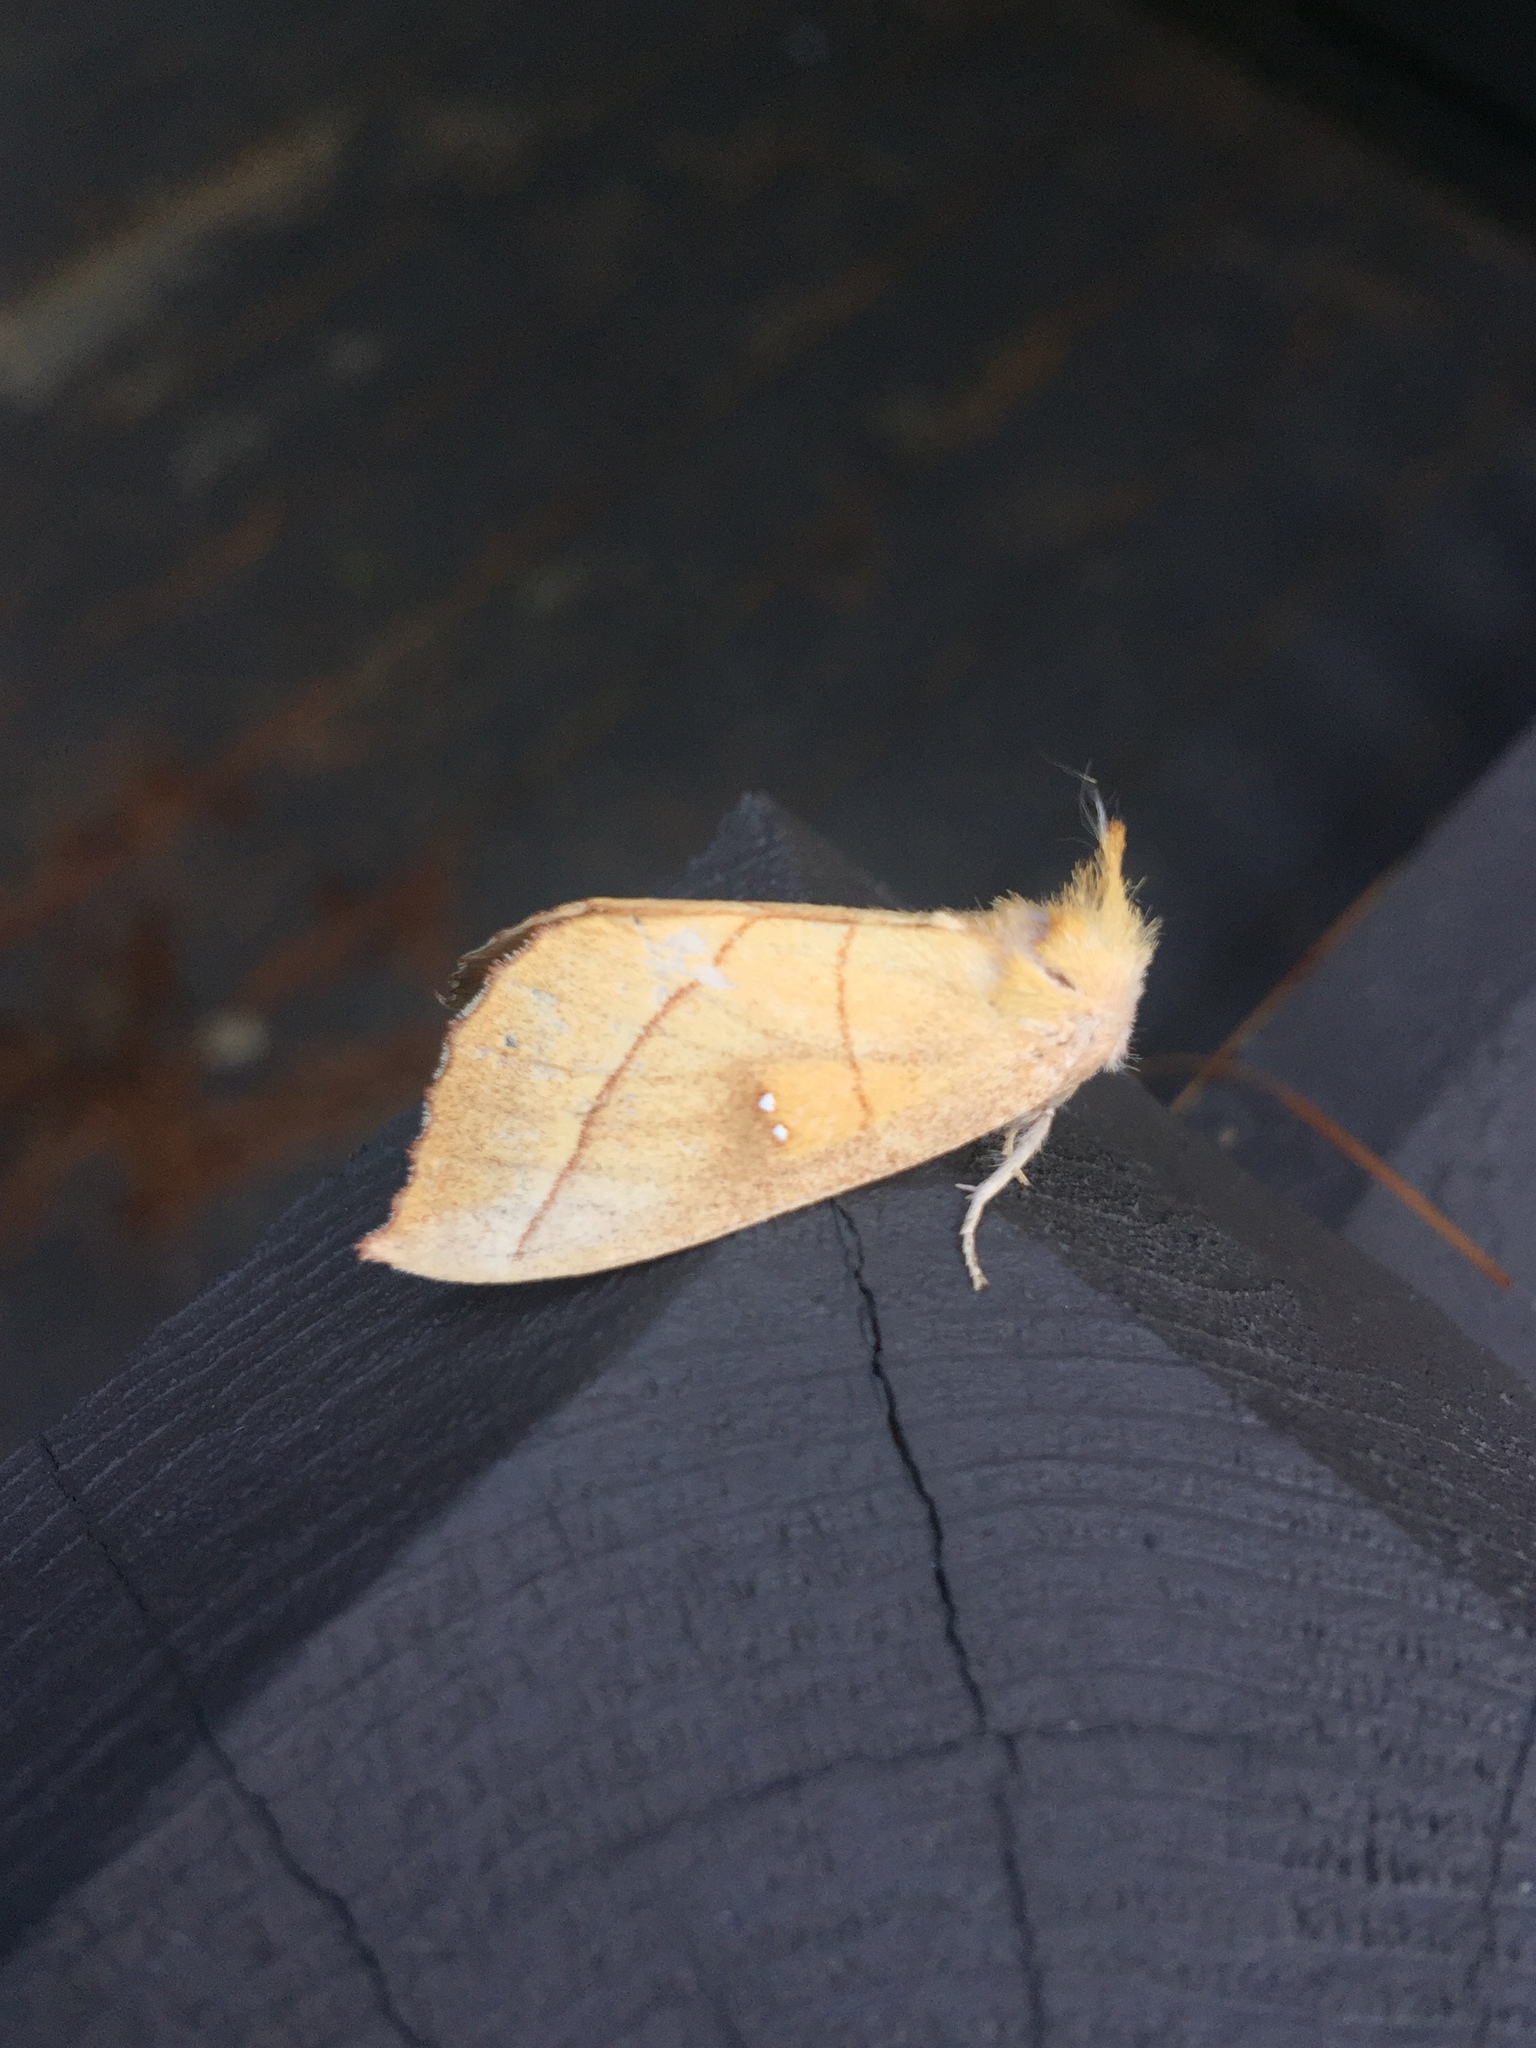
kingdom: Animalia
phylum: Arthropoda
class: Insecta
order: Lepidoptera
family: Notodontidae
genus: Nadata
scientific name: Nadata gibbosa
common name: White-dotted prominent
